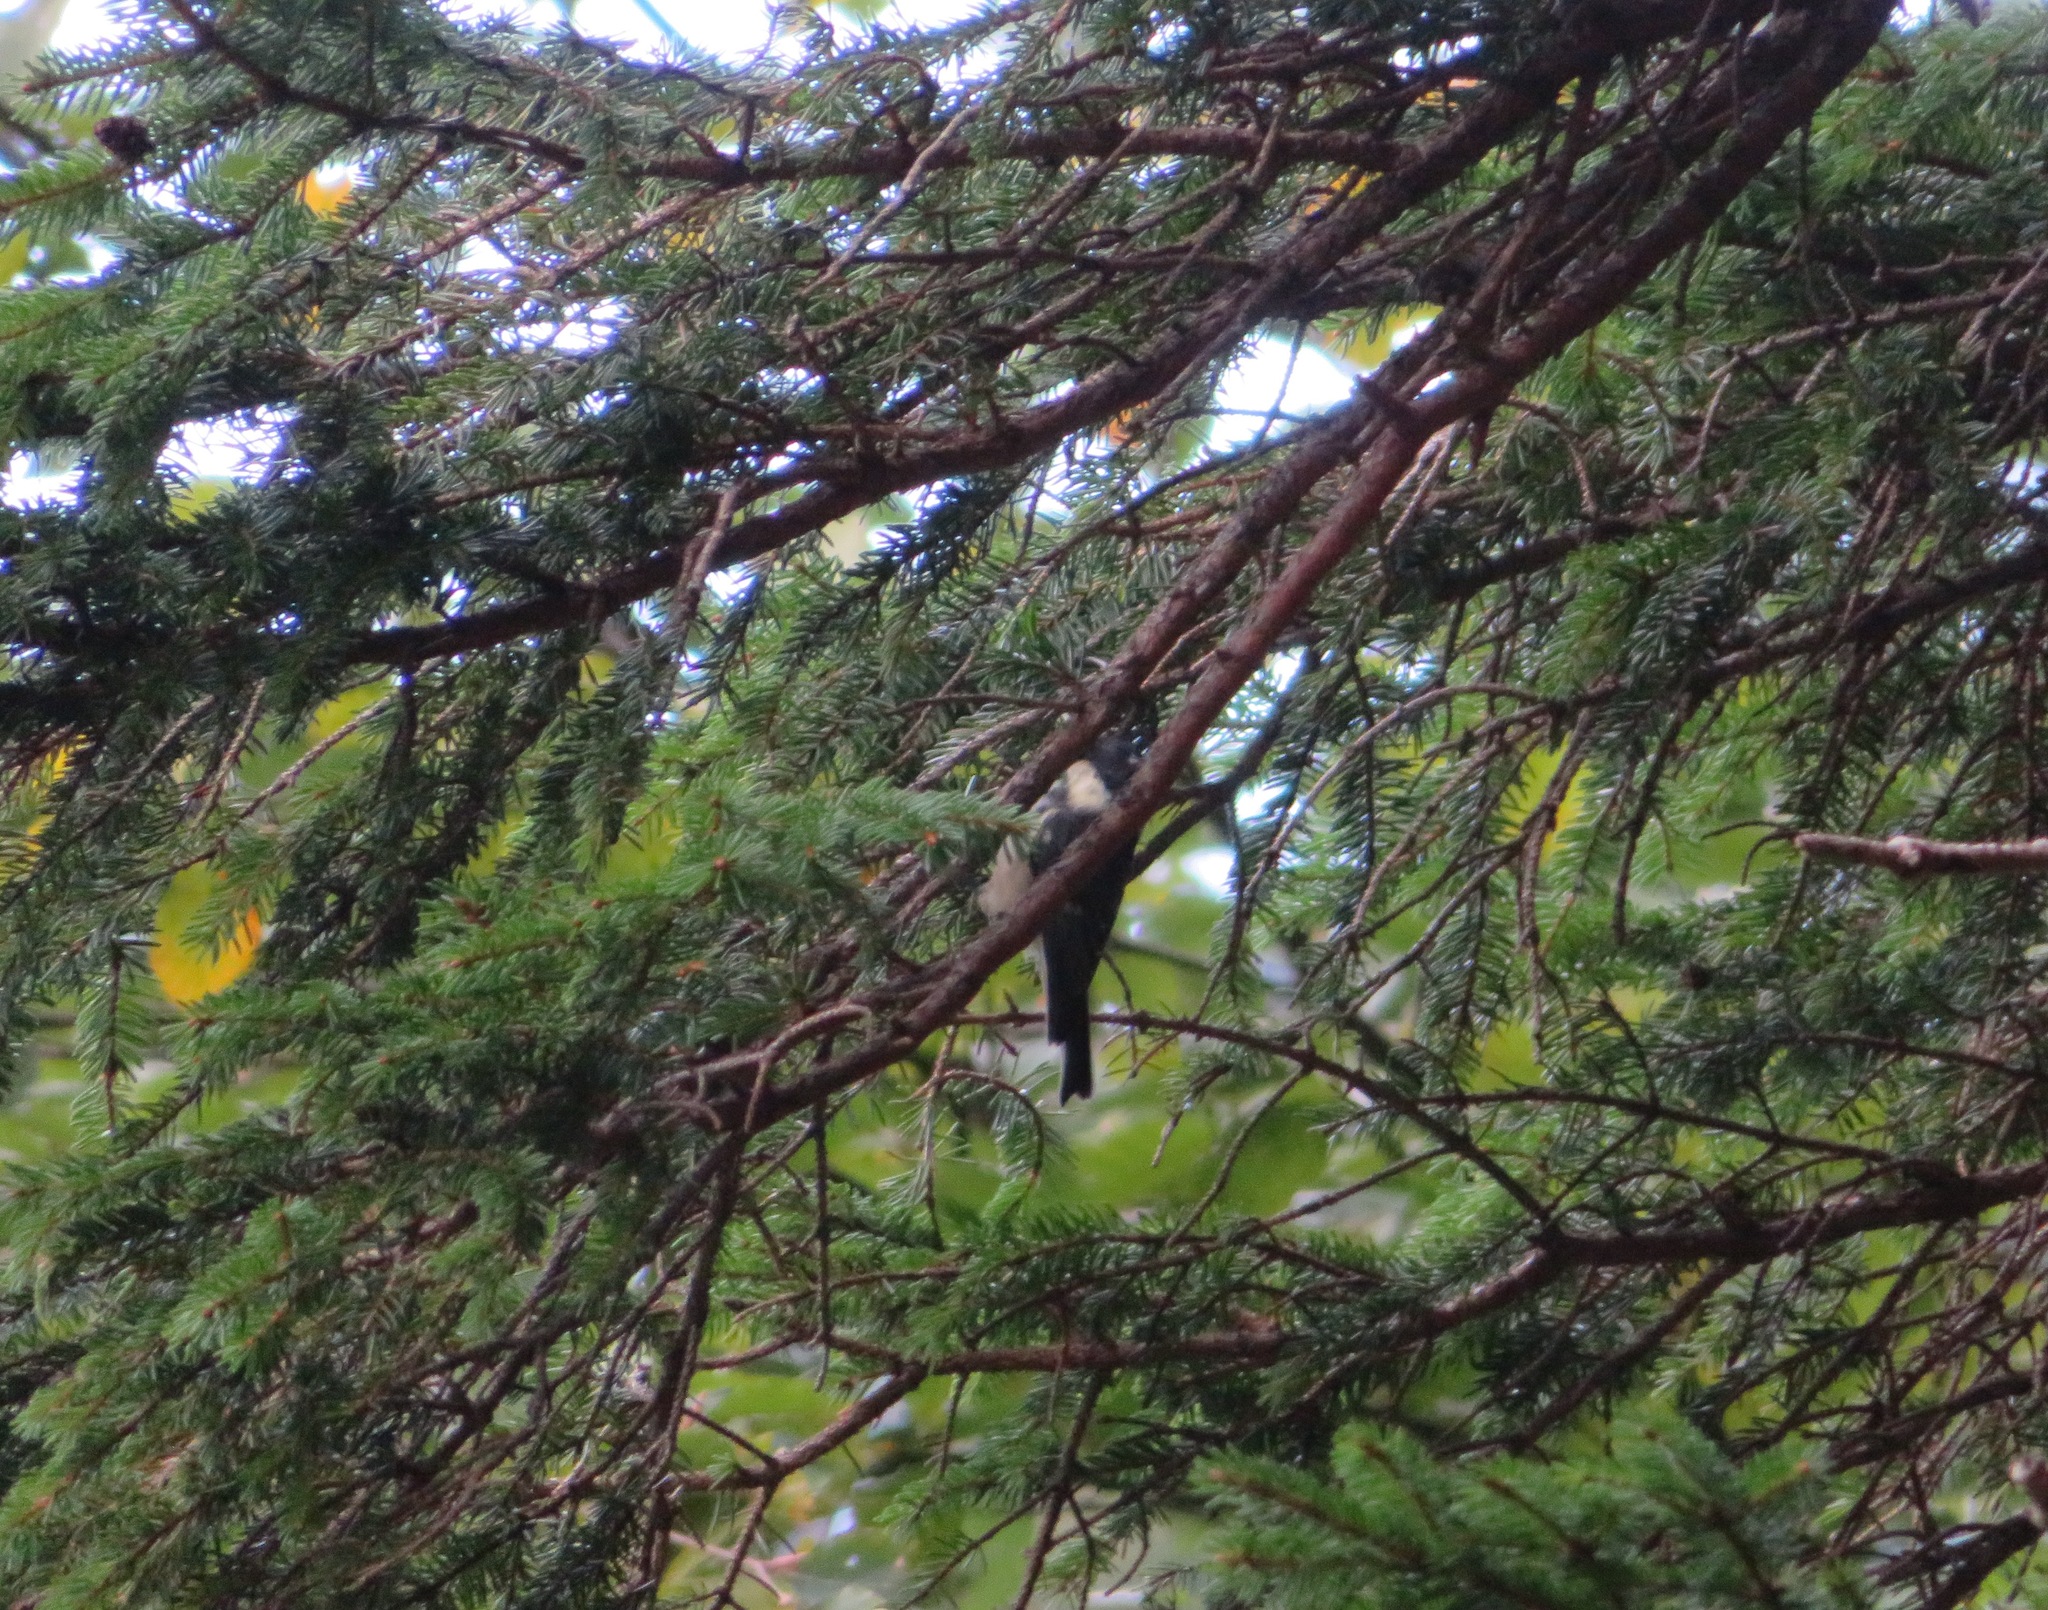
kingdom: Animalia
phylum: Chordata
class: Aves
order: Passeriformes
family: Paridae
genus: Periparus
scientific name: Periparus ater
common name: Coal tit
